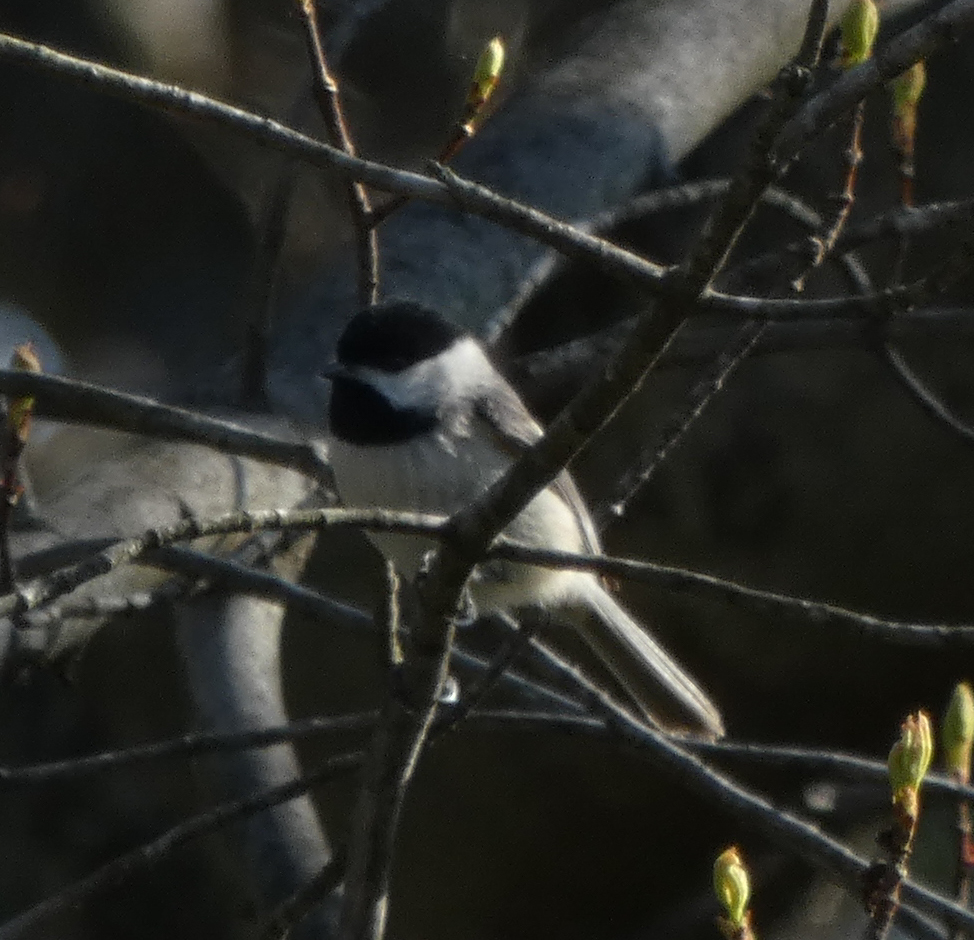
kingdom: Animalia
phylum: Chordata
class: Aves
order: Passeriformes
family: Paridae
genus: Poecile
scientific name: Poecile carolinensis
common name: Carolina chickadee
